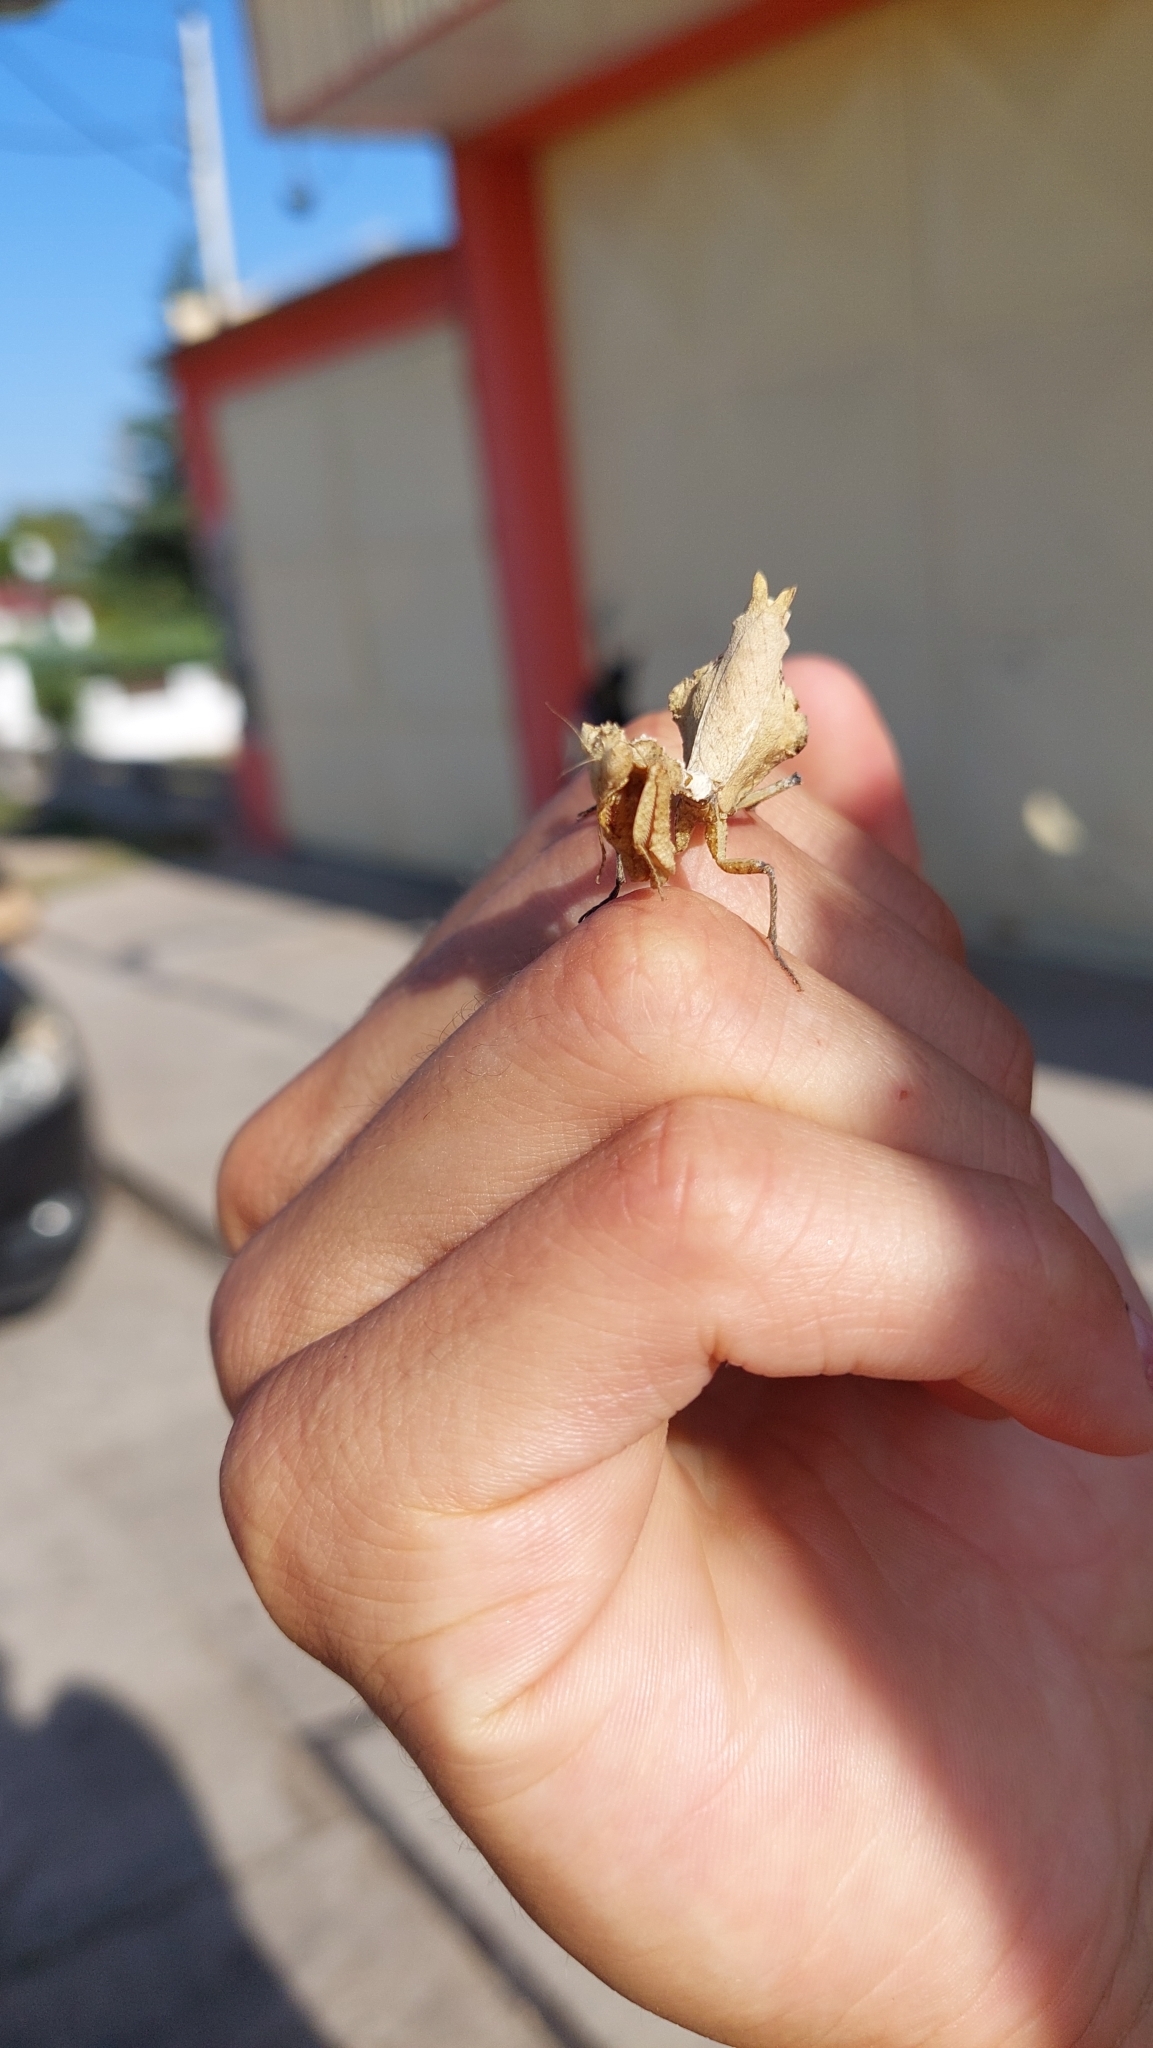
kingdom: Animalia
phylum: Arthropoda
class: Insecta
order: Mantodea
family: Acanthopidae
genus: Decimiana
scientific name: Decimiana rehni
